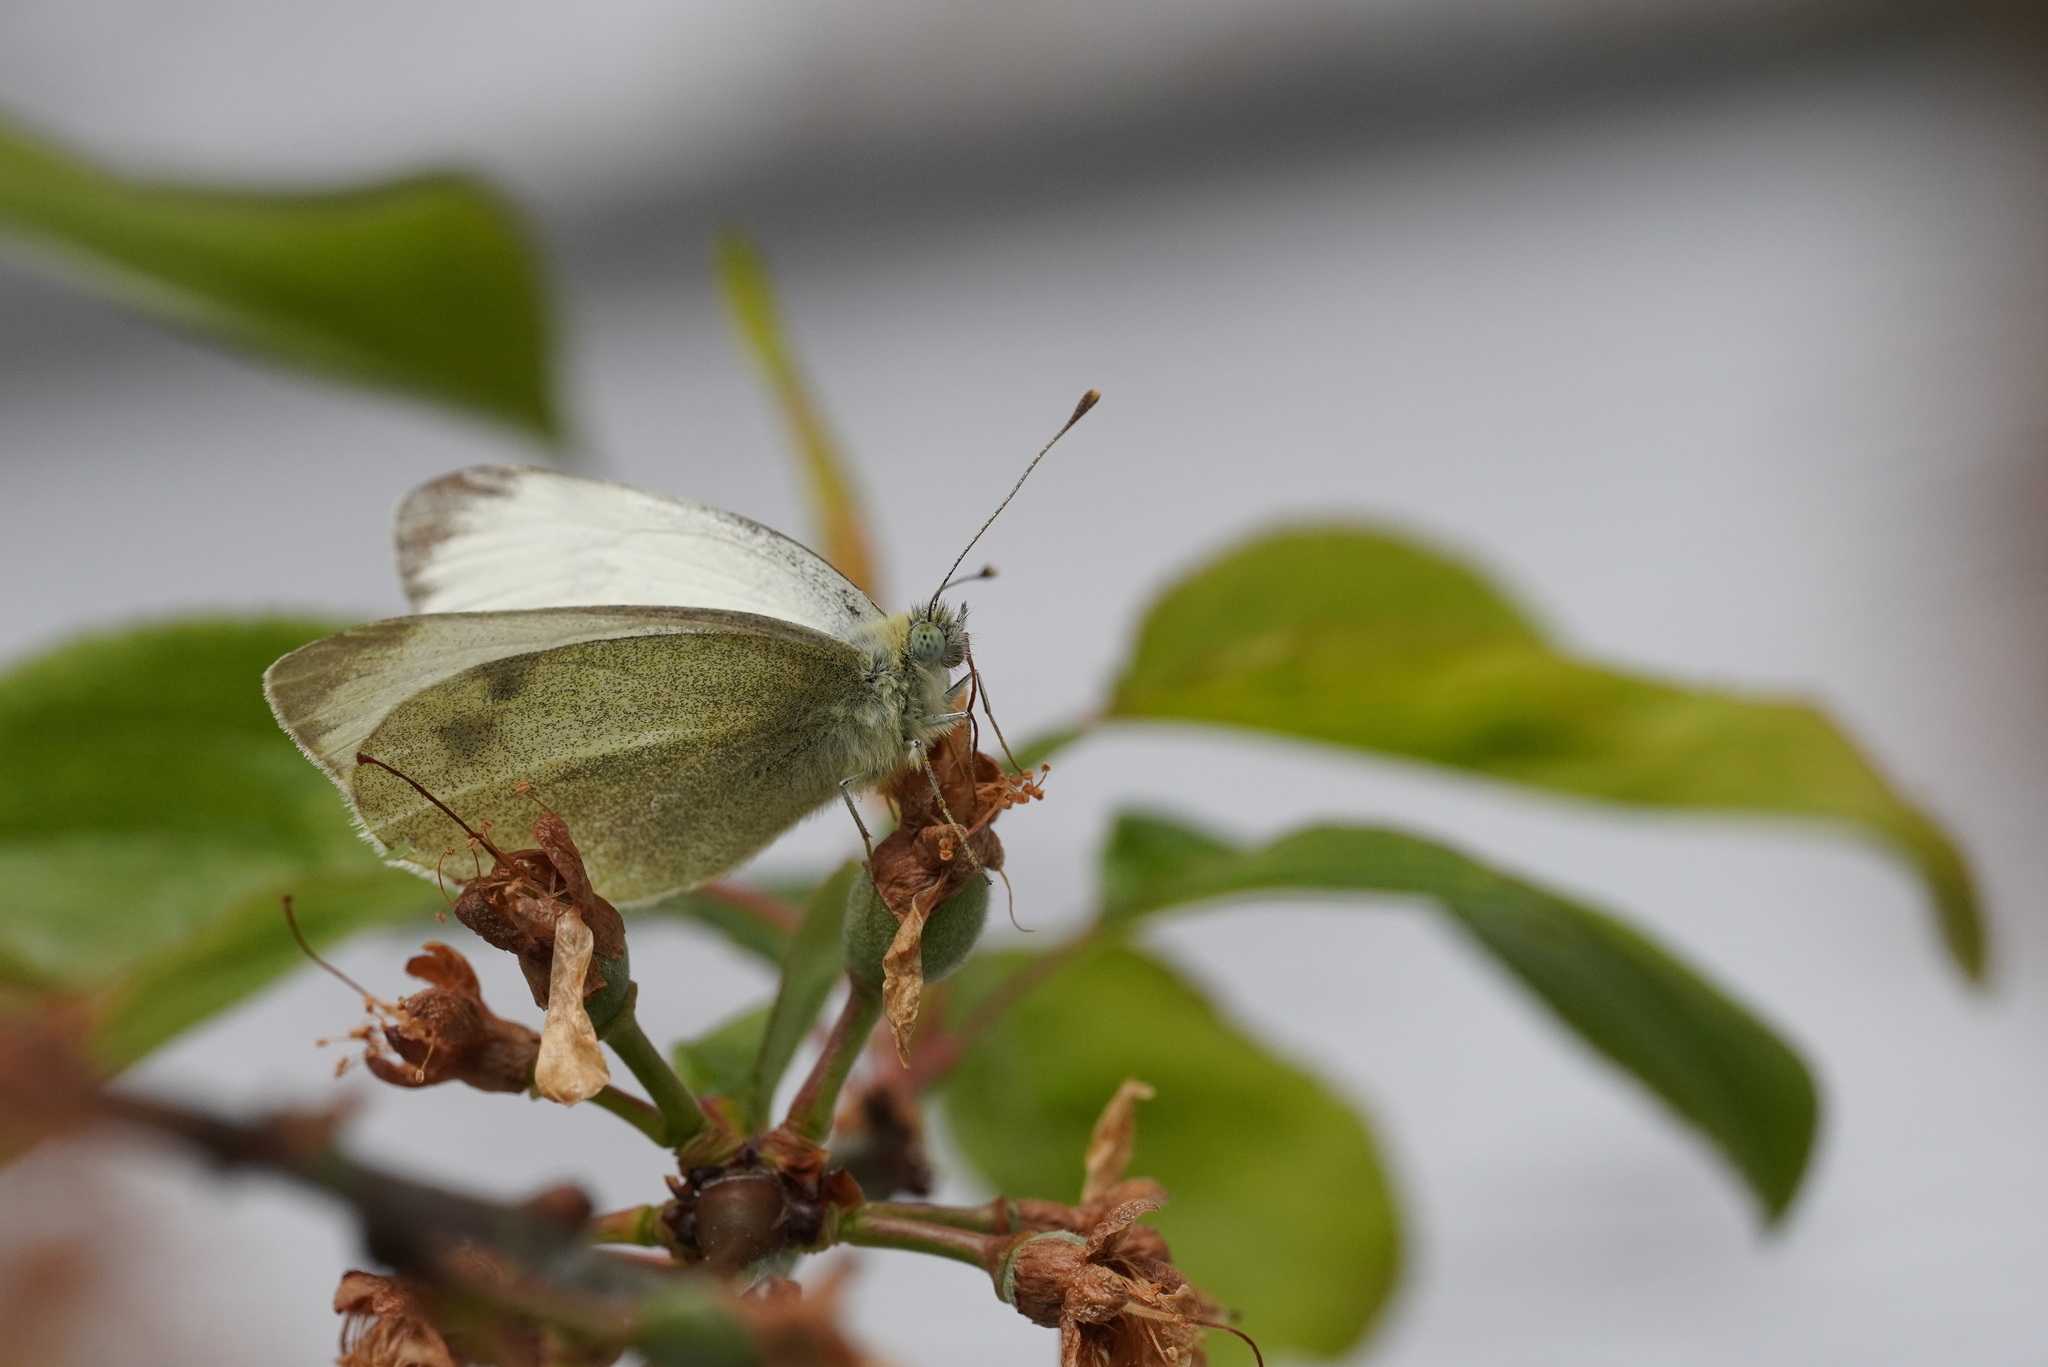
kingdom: Animalia
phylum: Arthropoda
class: Insecta
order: Lepidoptera
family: Pieridae
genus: Pieris
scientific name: Pieris mannii
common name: Southern small white
